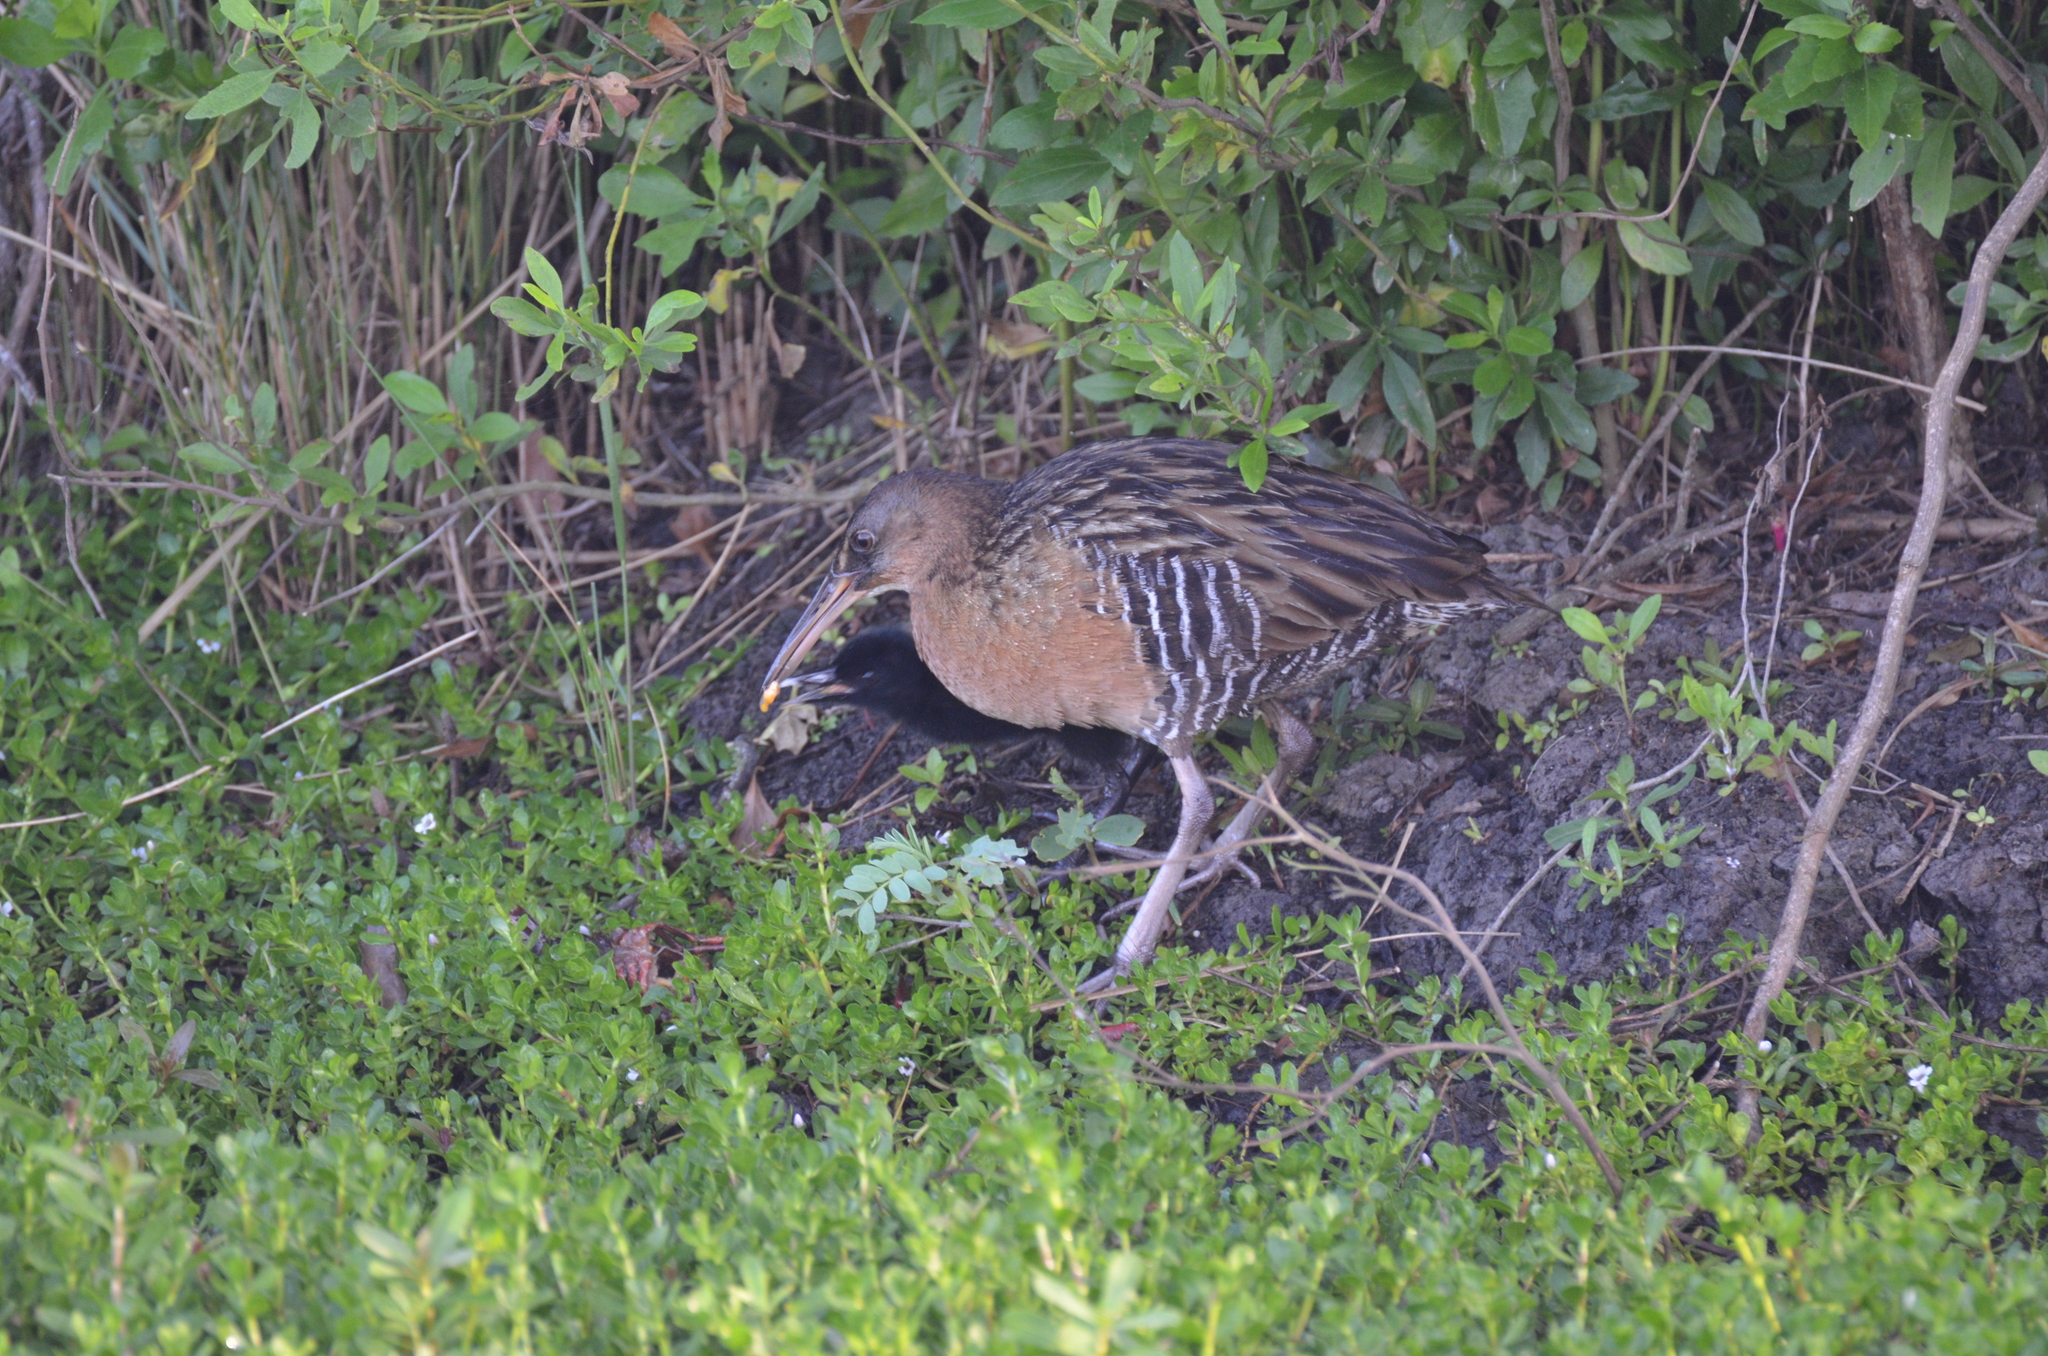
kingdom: Animalia
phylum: Chordata
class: Aves
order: Gruiformes
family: Rallidae
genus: Rallus
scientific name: Rallus elegans
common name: King rail
